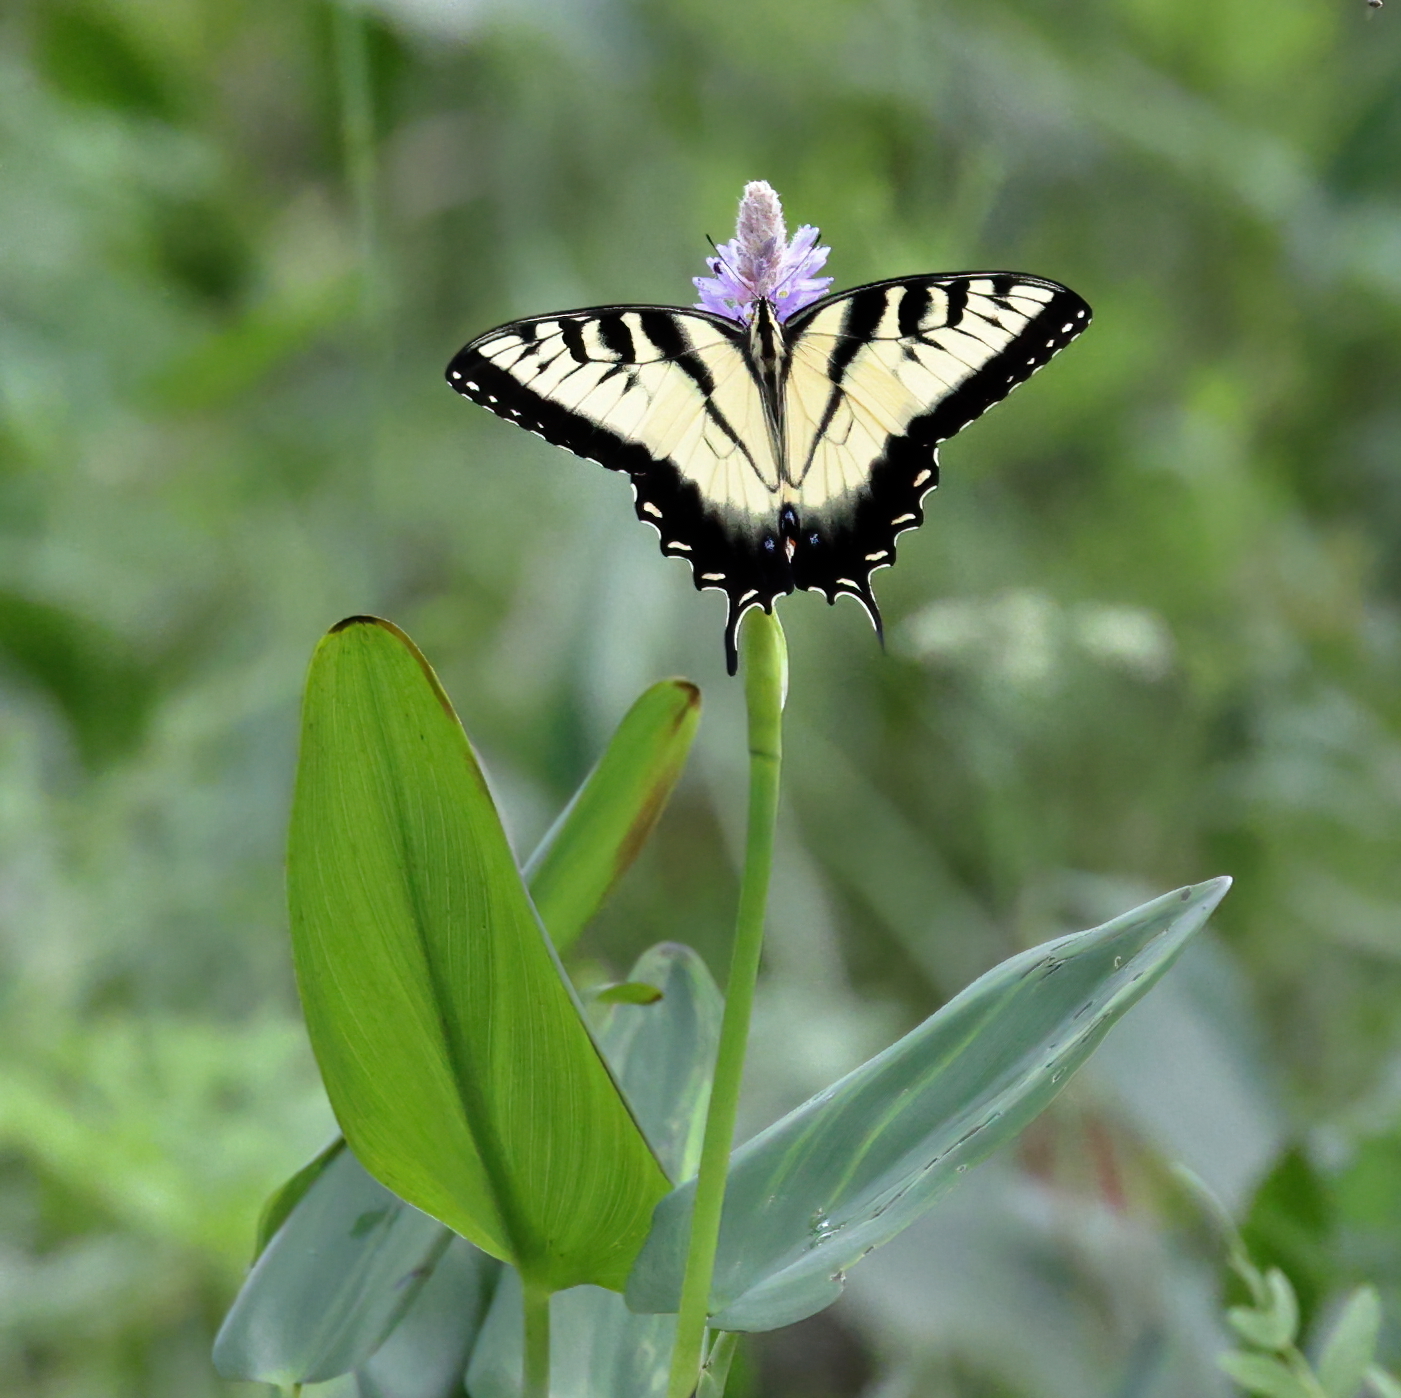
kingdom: Animalia
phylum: Arthropoda
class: Insecta
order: Lepidoptera
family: Papilionidae
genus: Papilio
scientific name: Papilio glaucus
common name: Tiger swallowtail
